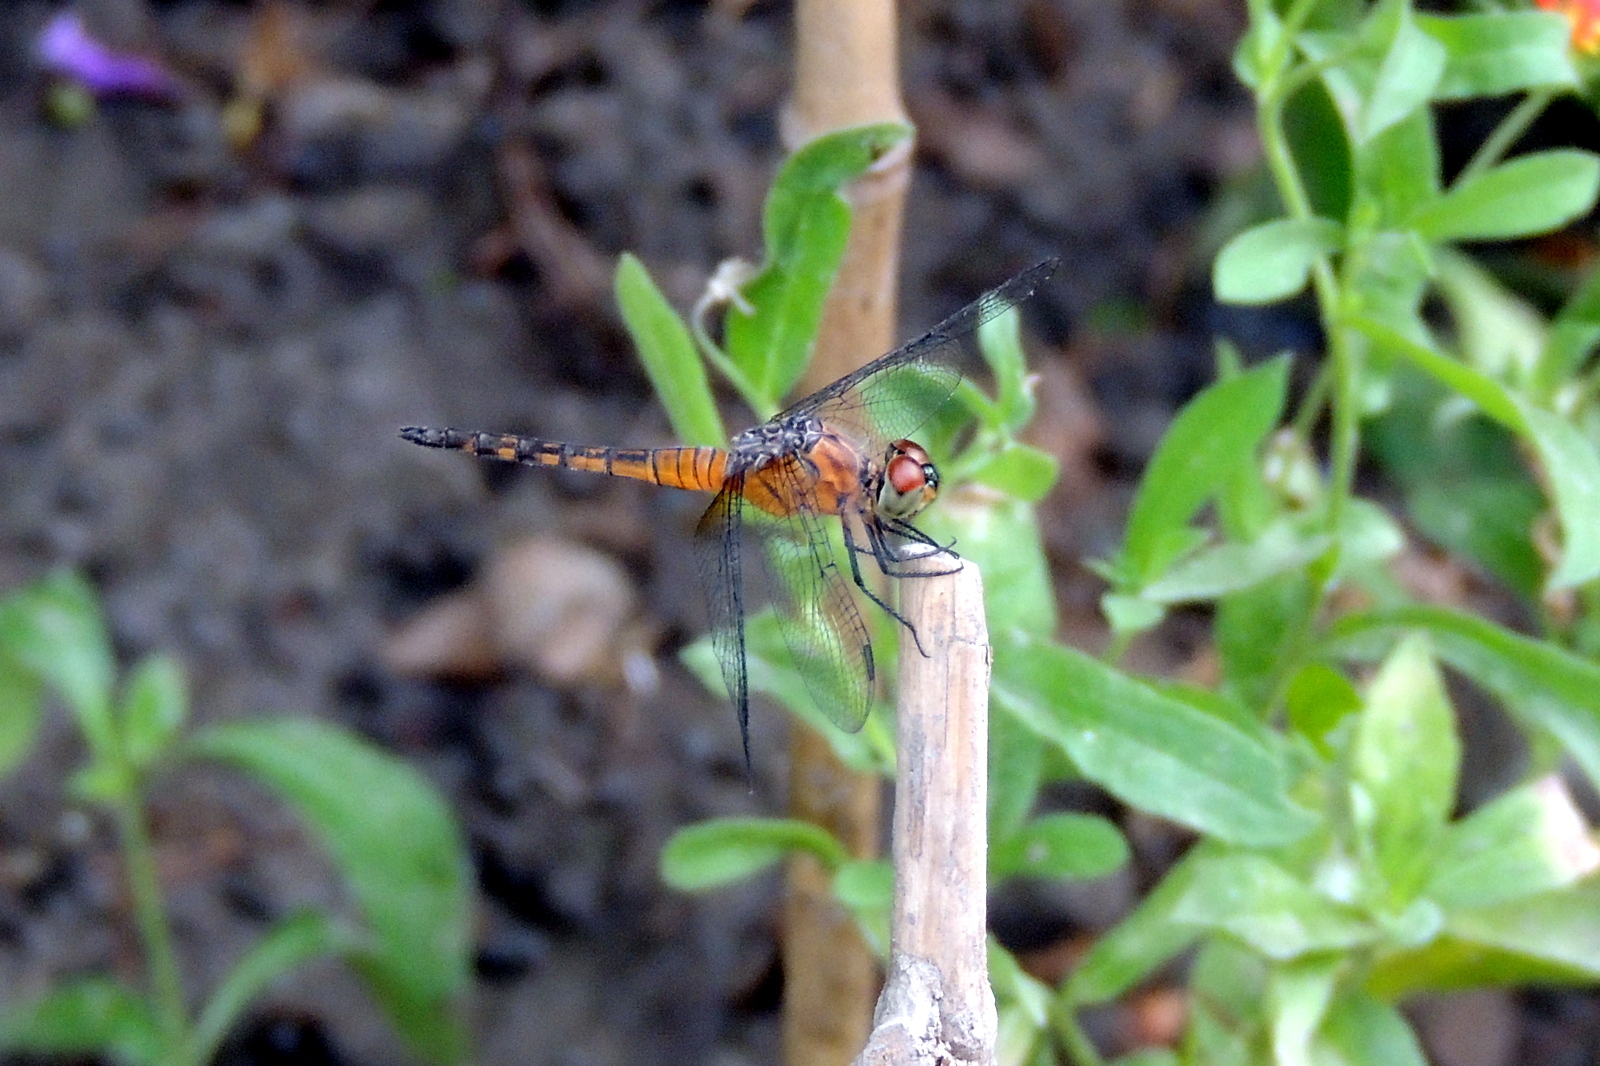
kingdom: Animalia
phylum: Arthropoda
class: Insecta
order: Odonata
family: Libellulidae
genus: Brachydiplax
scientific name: Brachydiplax chalybea
